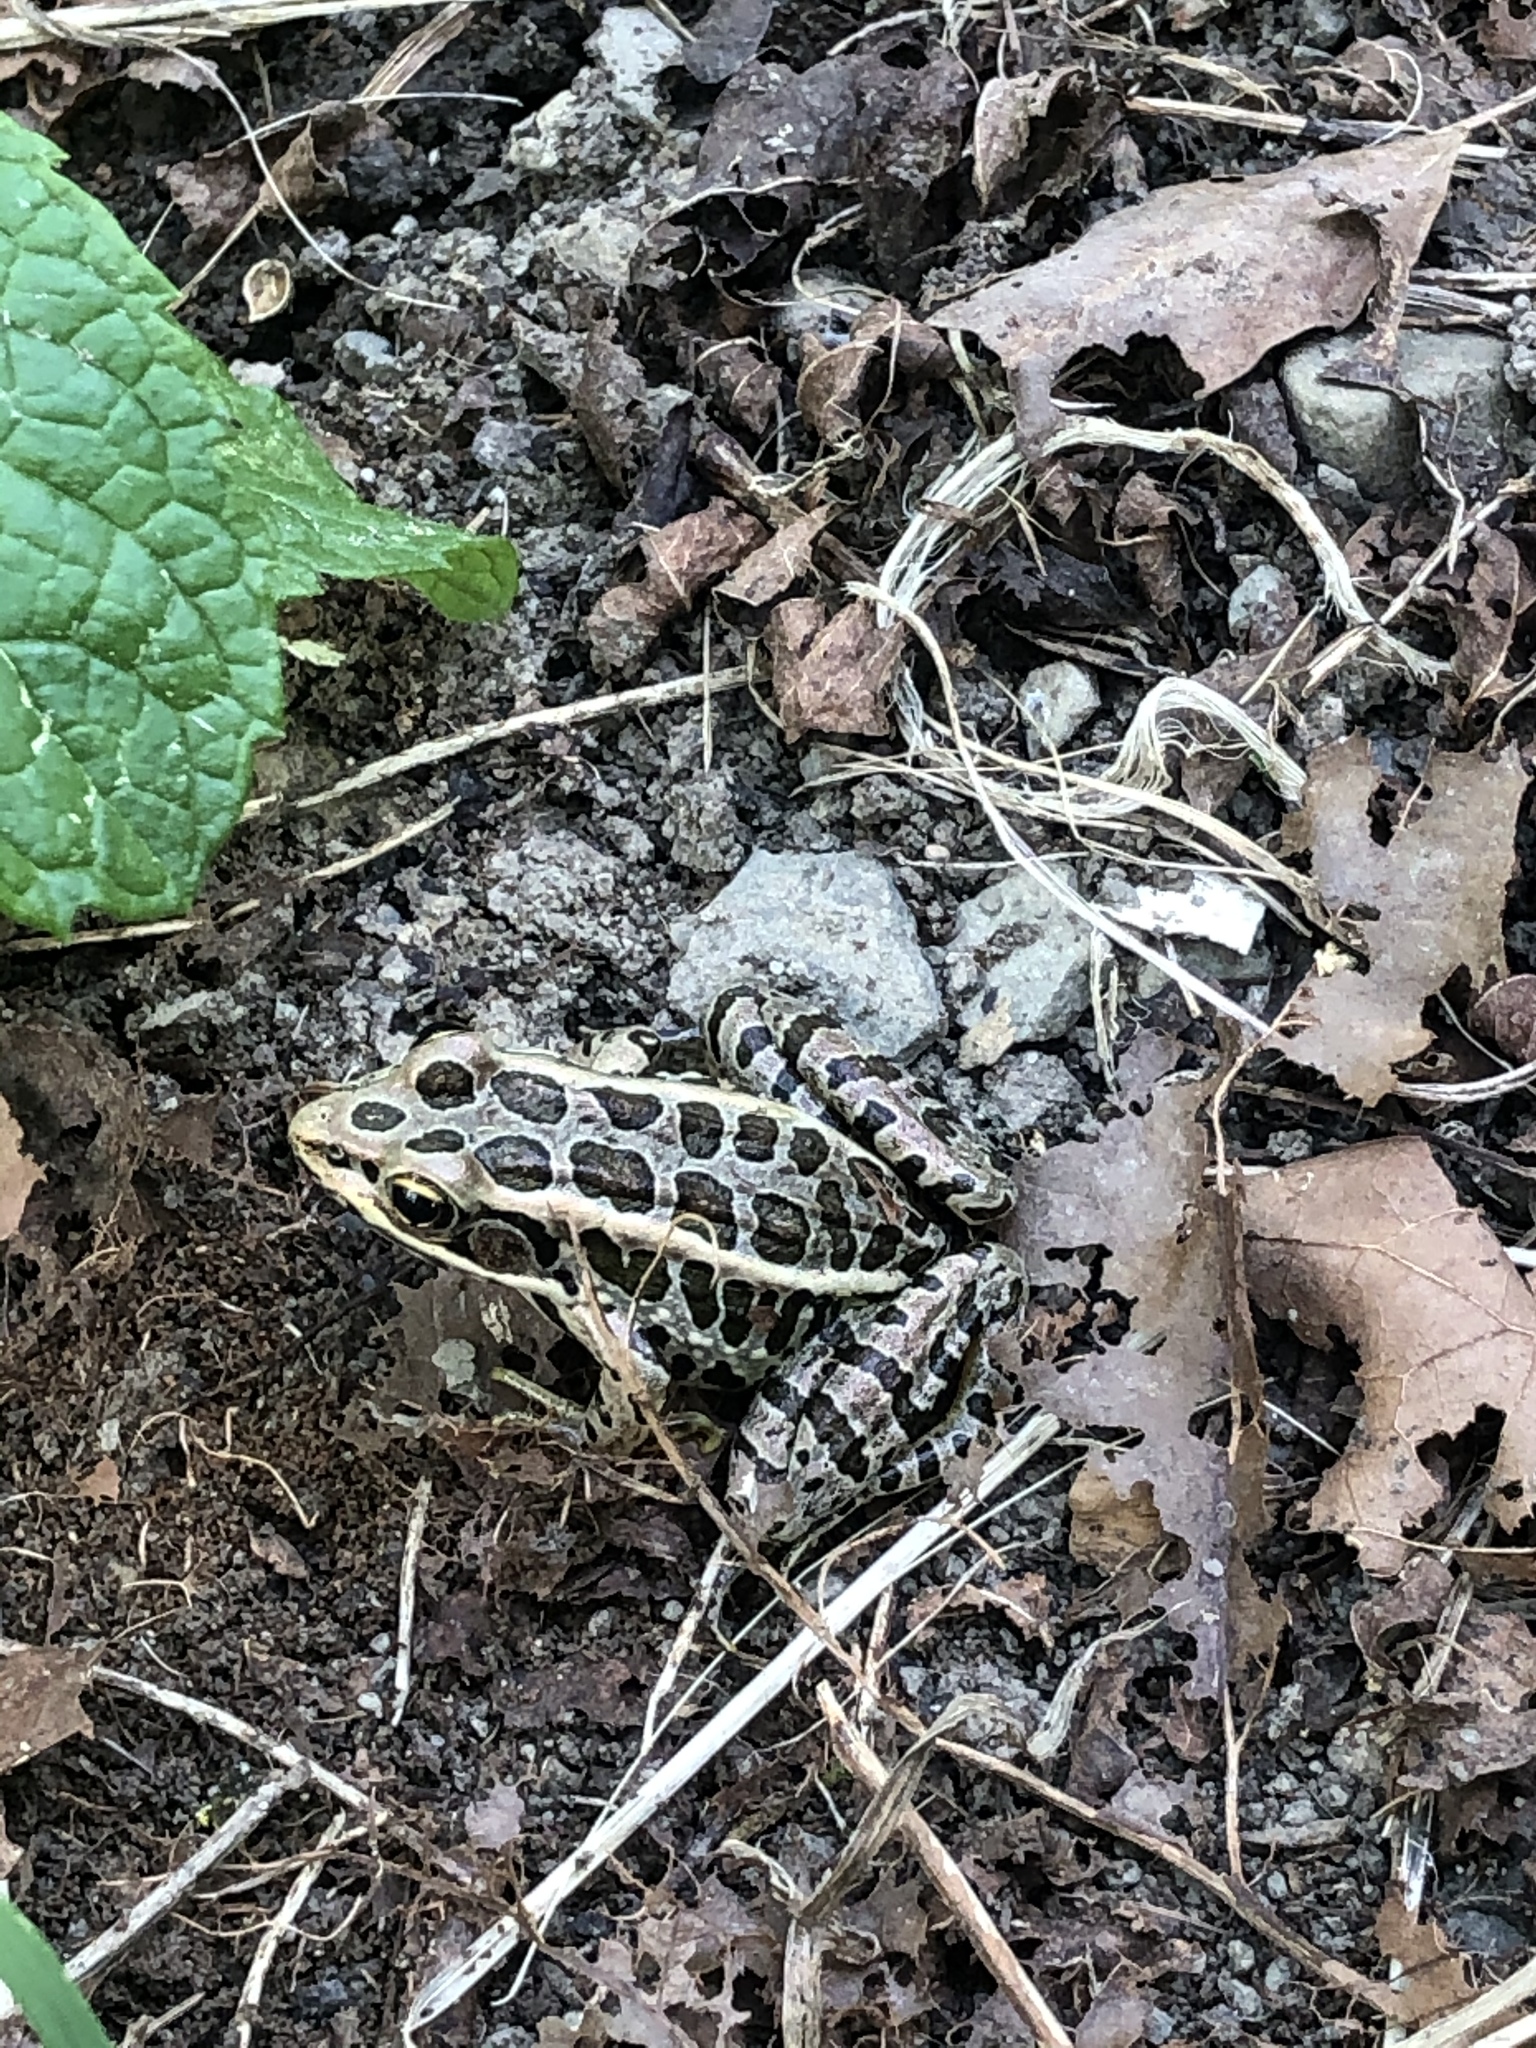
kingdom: Animalia
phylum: Chordata
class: Amphibia
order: Anura
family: Ranidae
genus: Lithobates
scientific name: Lithobates palustris
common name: Pickerel frog
